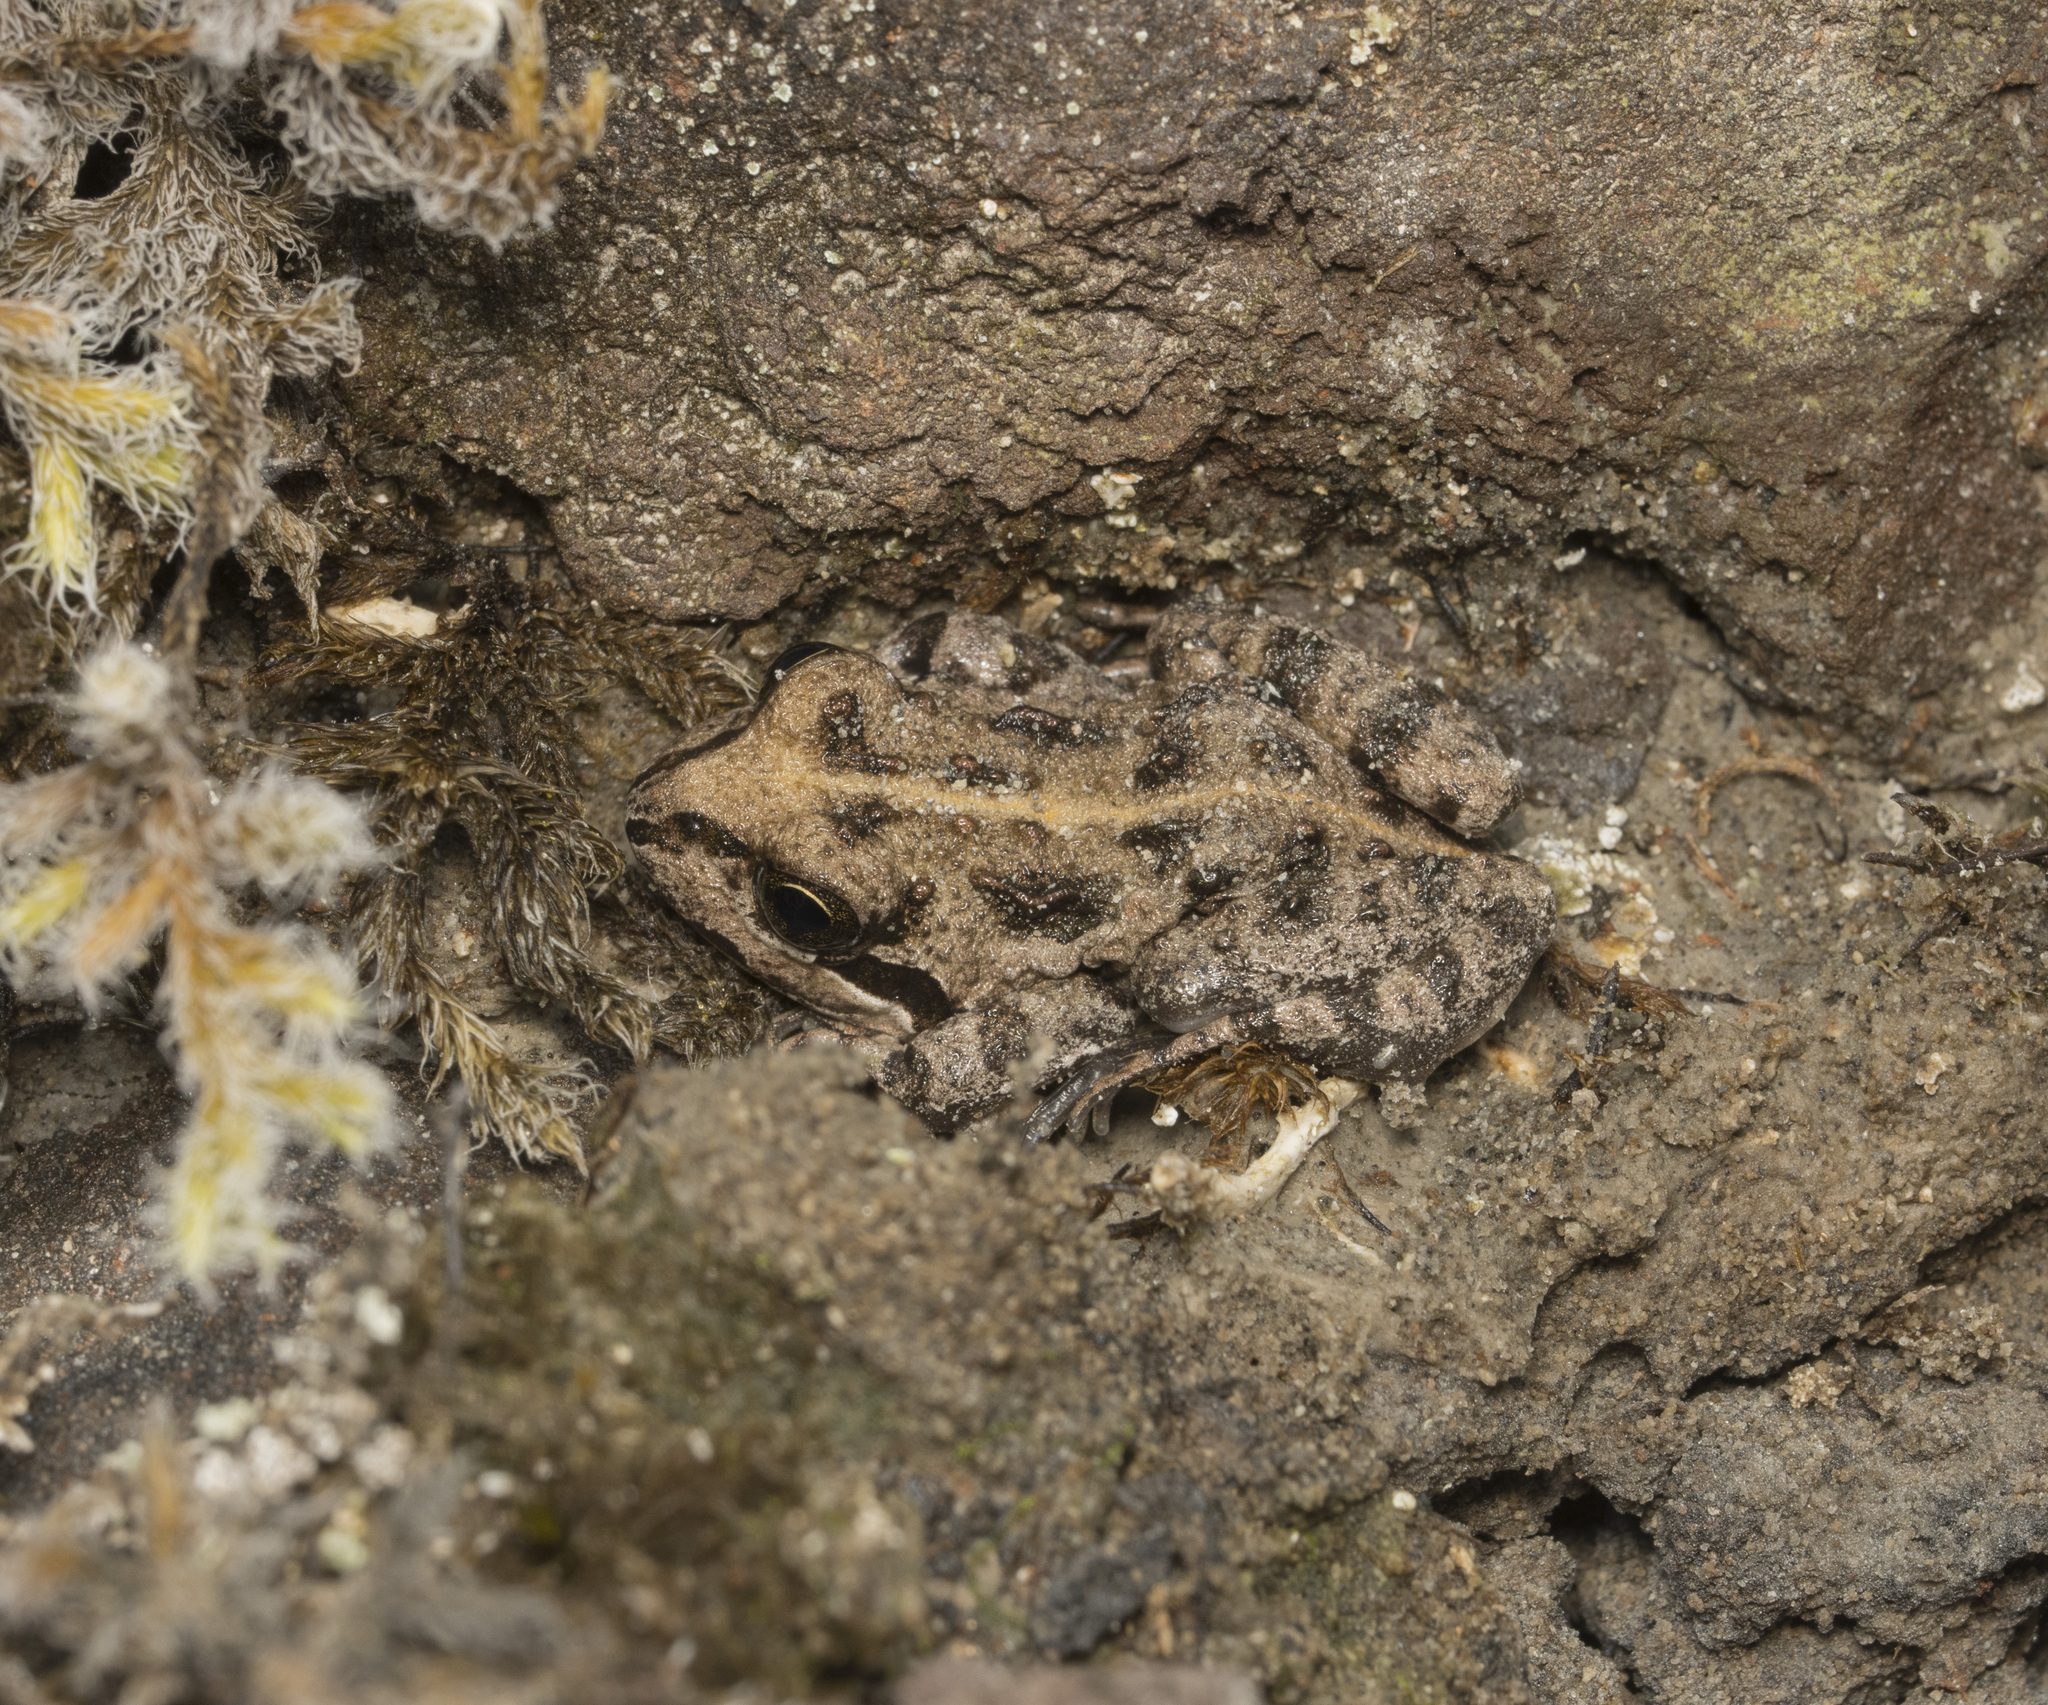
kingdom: Animalia
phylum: Chordata
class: Amphibia
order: Anura
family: Leptodactylidae
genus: Pleurodema
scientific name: Pleurodema thaul
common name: Chile four-eyed frog
